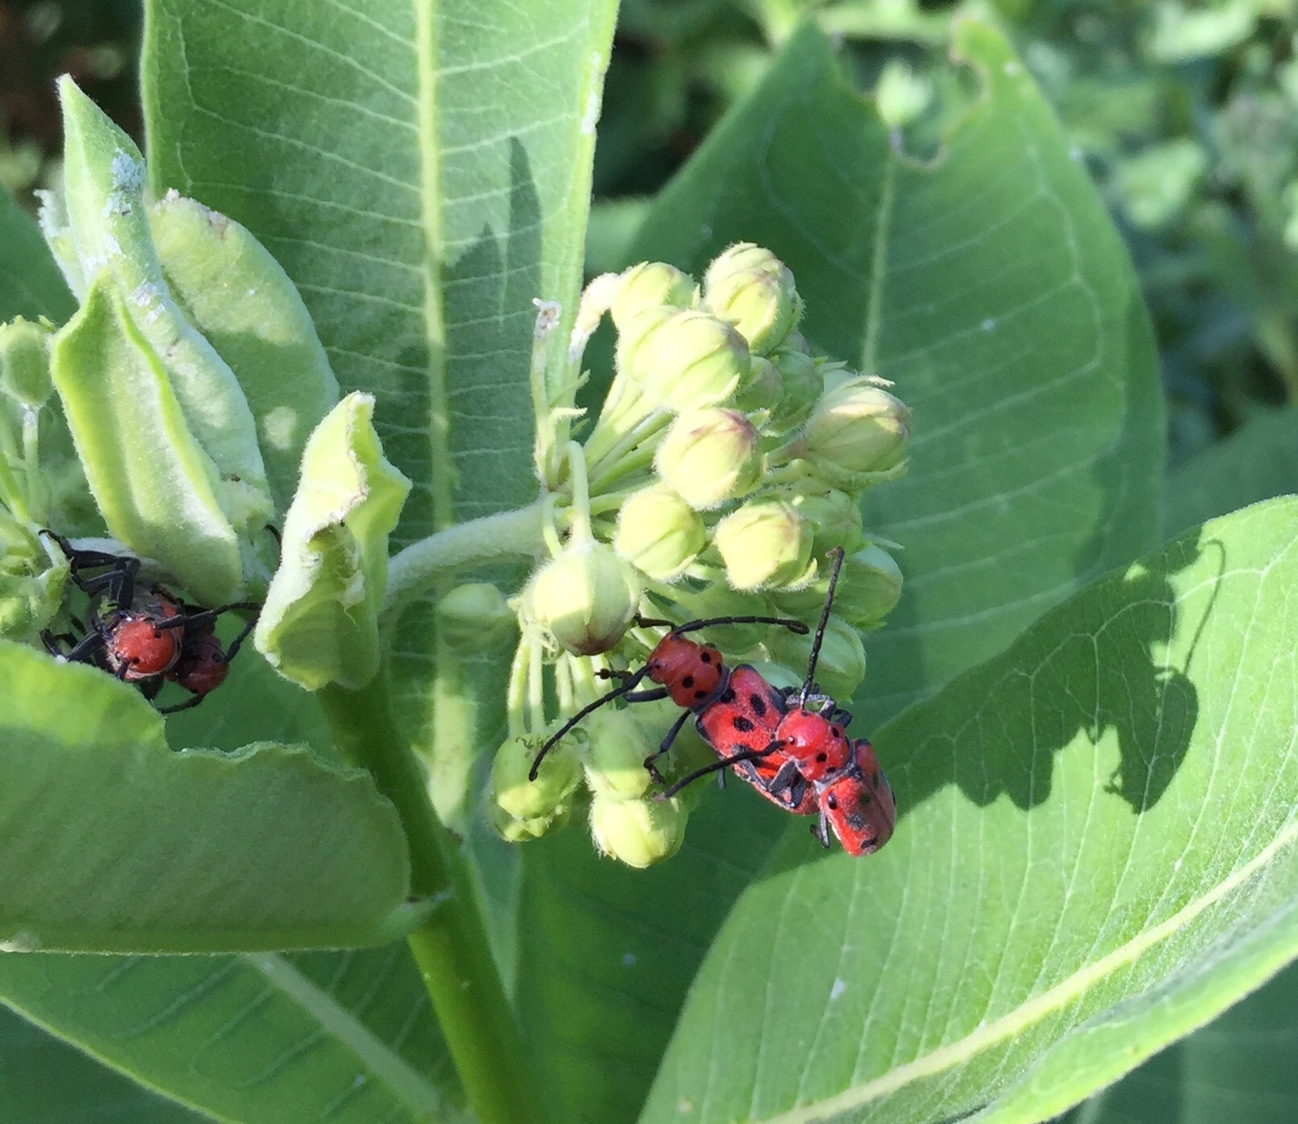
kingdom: Animalia
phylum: Arthropoda
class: Insecta
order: Coleoptera
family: Cerambycidae
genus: Tetraopes
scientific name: Tetraopes tetrophthalmus
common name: Red milkweed beetle
